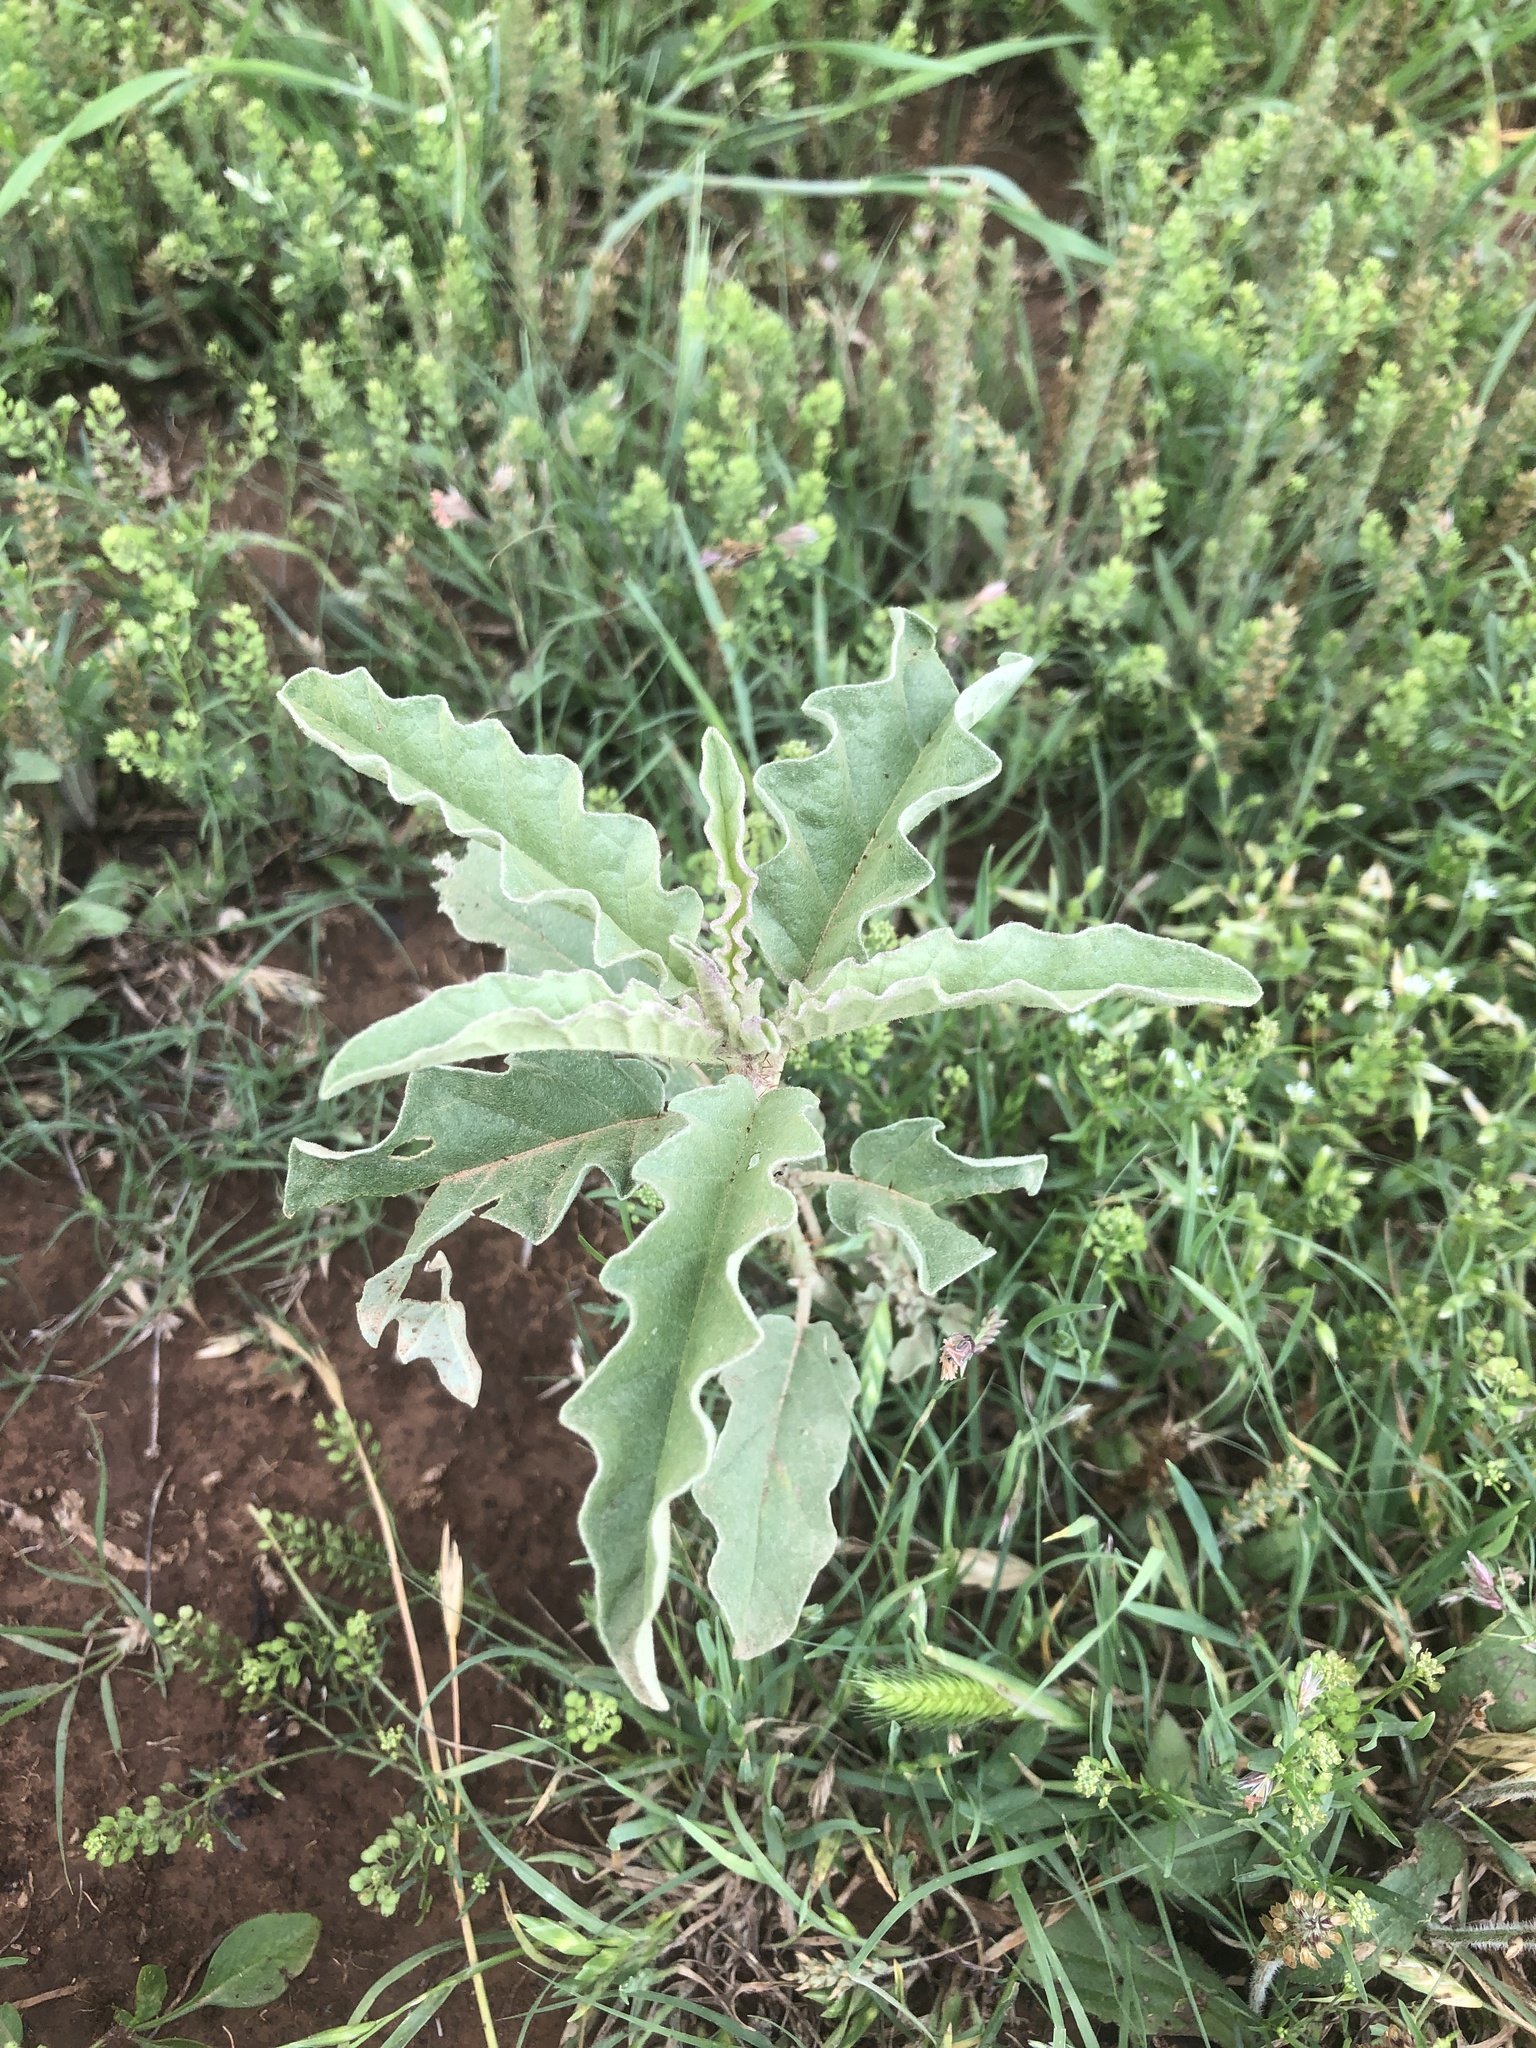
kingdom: Plantae
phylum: Tracheophyta
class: Magnoliopsida
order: Solanales
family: Solanaceae
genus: Solanum
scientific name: Solanum elaeagnifolium
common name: Silverleaf nightshade
